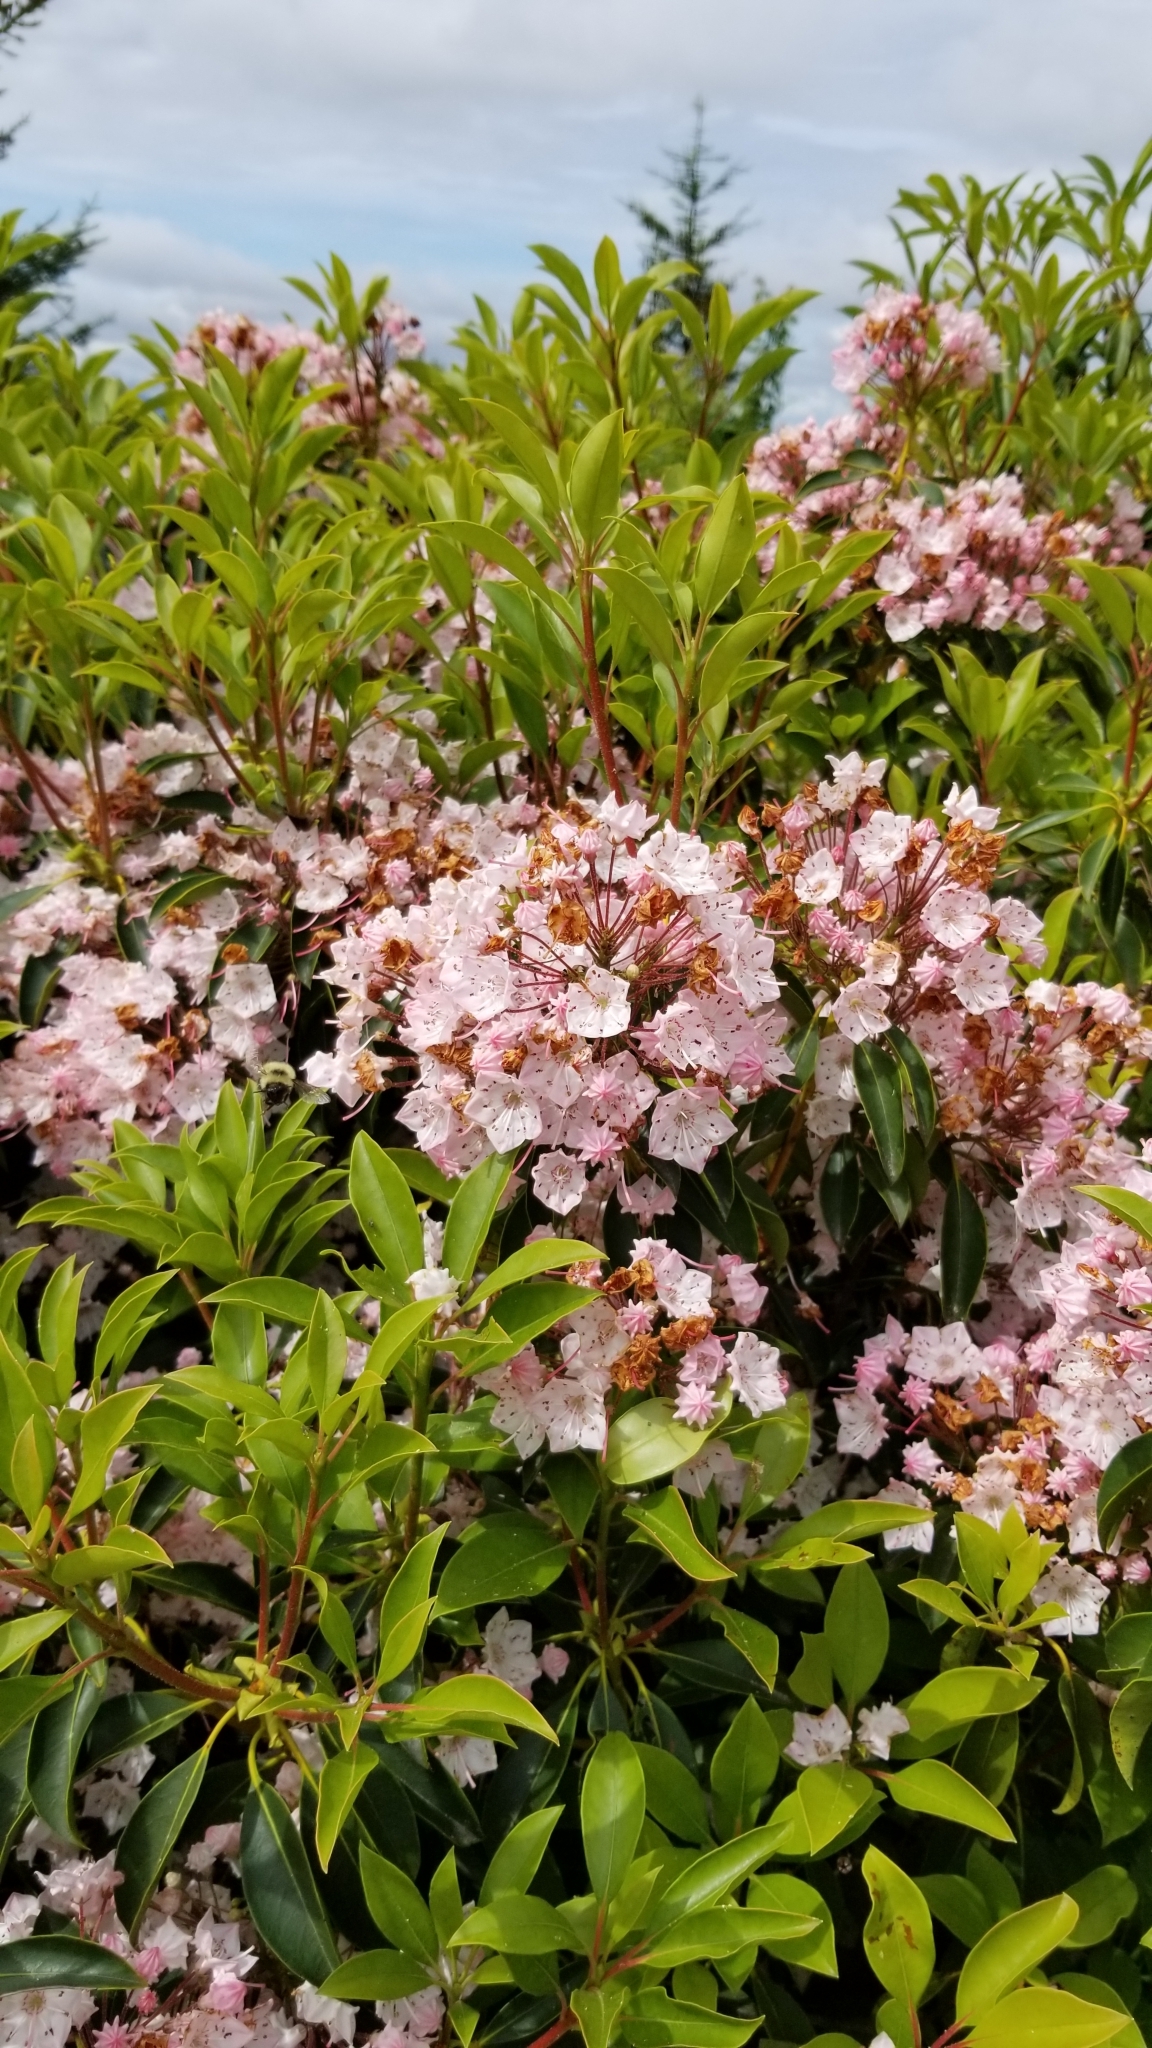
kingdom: Plantae
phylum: Tracheophyta
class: Magnoliopsida
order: Ericales
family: Ericaceae
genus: Kalmia
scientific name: Kalmia latifolia
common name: Mountain-laurel
